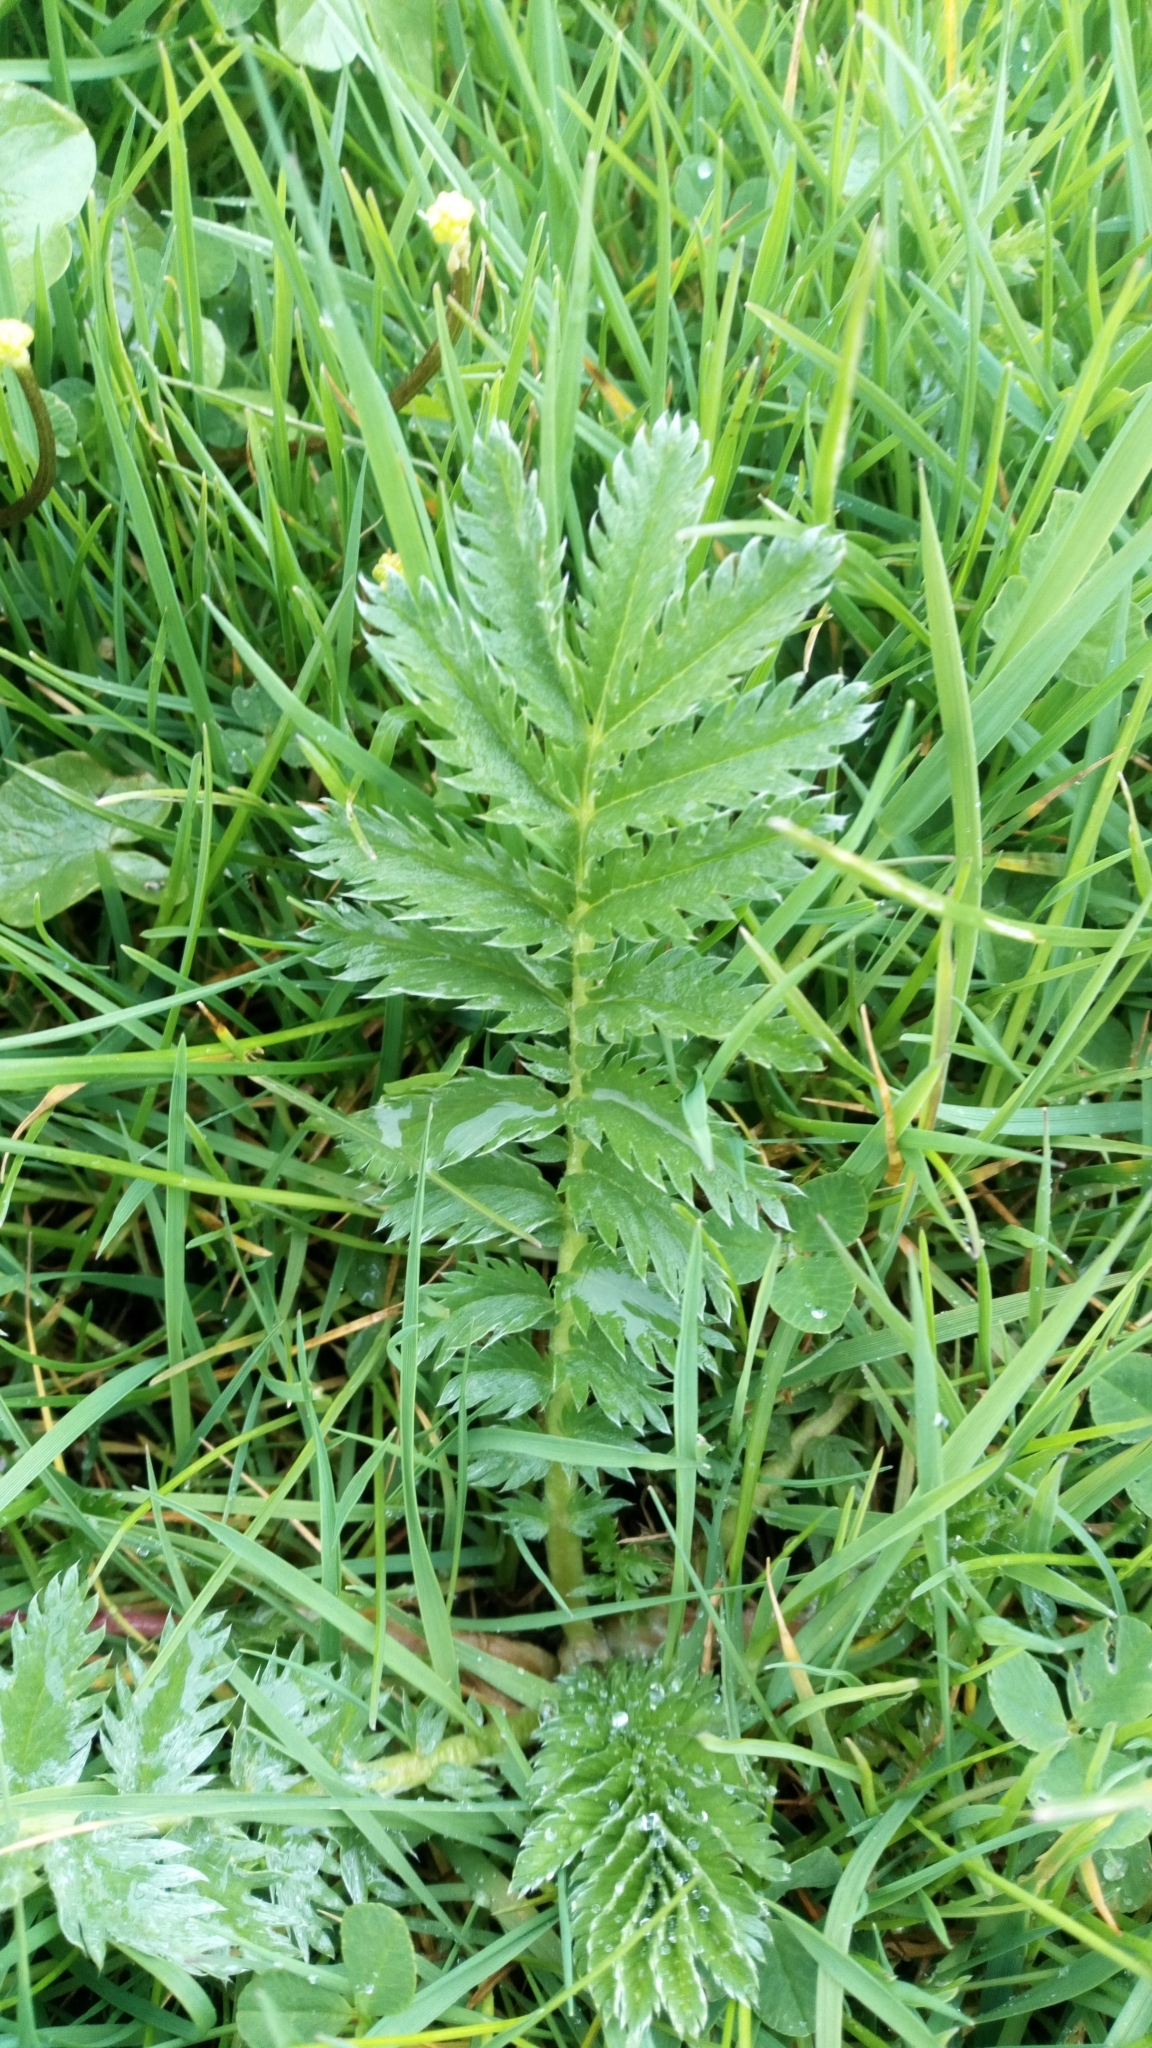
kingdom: Plantae
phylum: Tracheophyta
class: Magnoliopsida
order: Rosales
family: Rosaceae
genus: Argentina
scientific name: Argentina anserina
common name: Common silverweed
